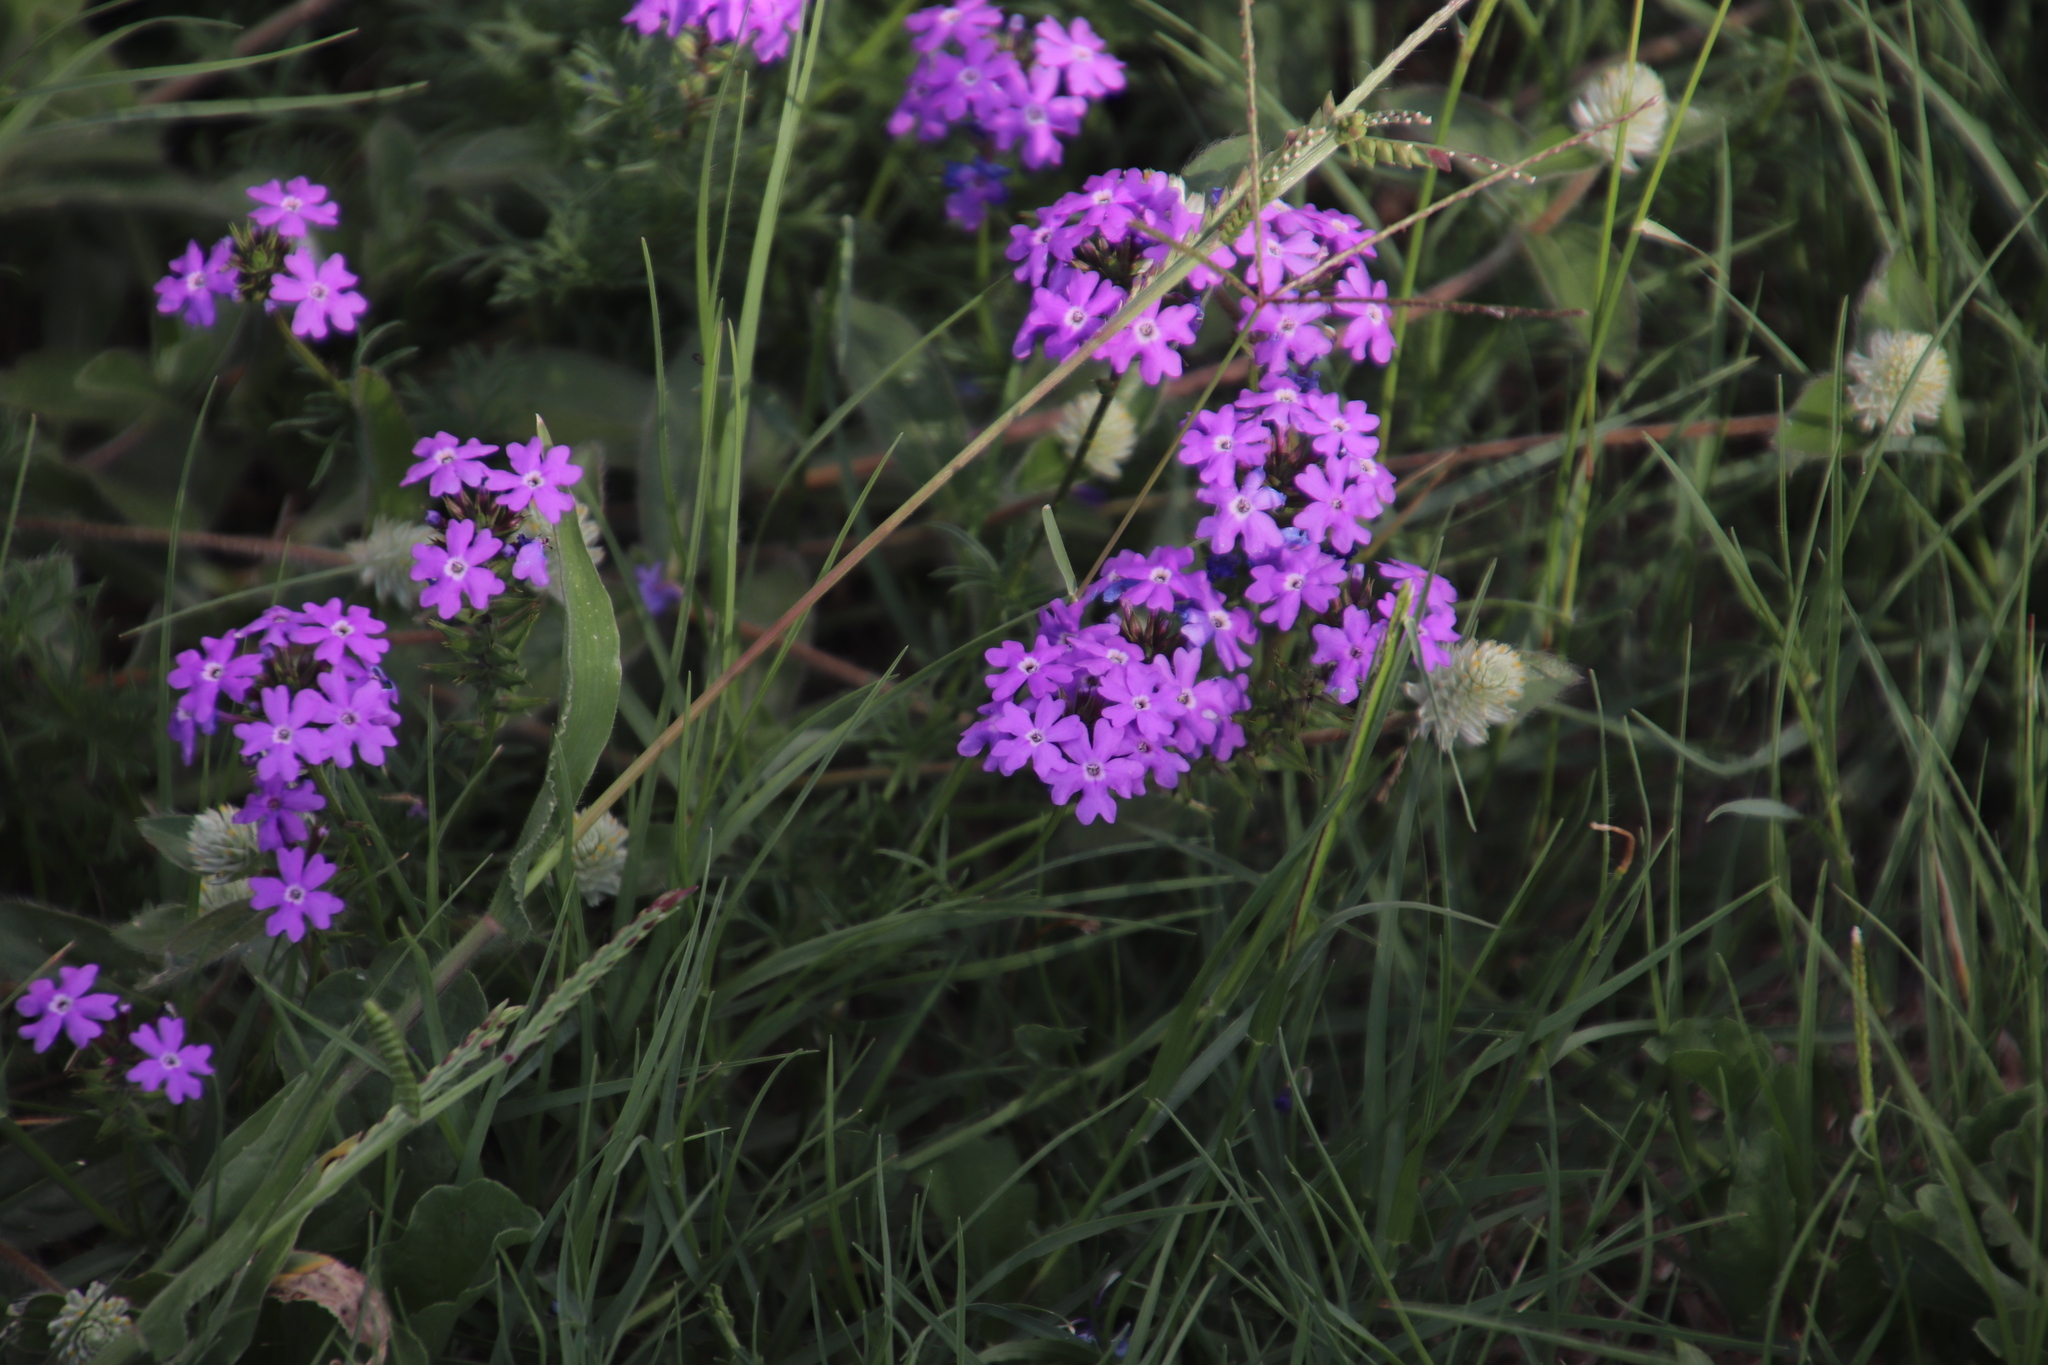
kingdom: Plantae
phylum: Tracheophyta
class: Magnoliopsida
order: Lamiales
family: Verbenaceae
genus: Verbena
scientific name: Verbena aristigera
